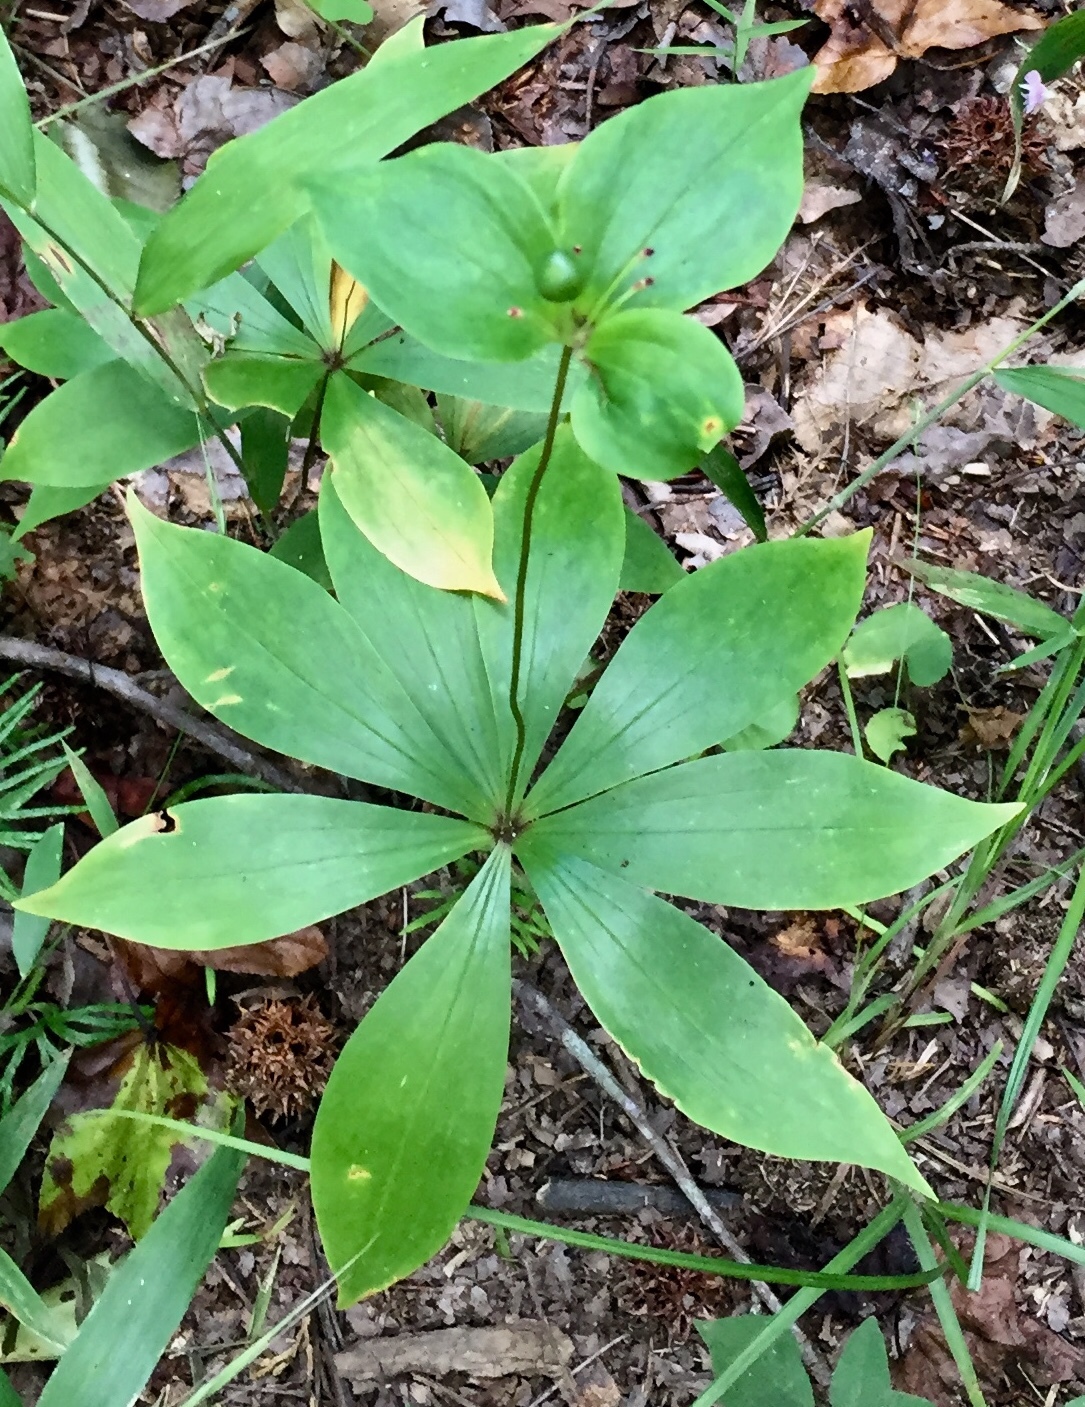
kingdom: Plantae
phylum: Tracheophyta
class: Liliopsida
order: Liliales
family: Liliaceae
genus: Medeola
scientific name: Medeola virginiana
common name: Indian cucumber-root
